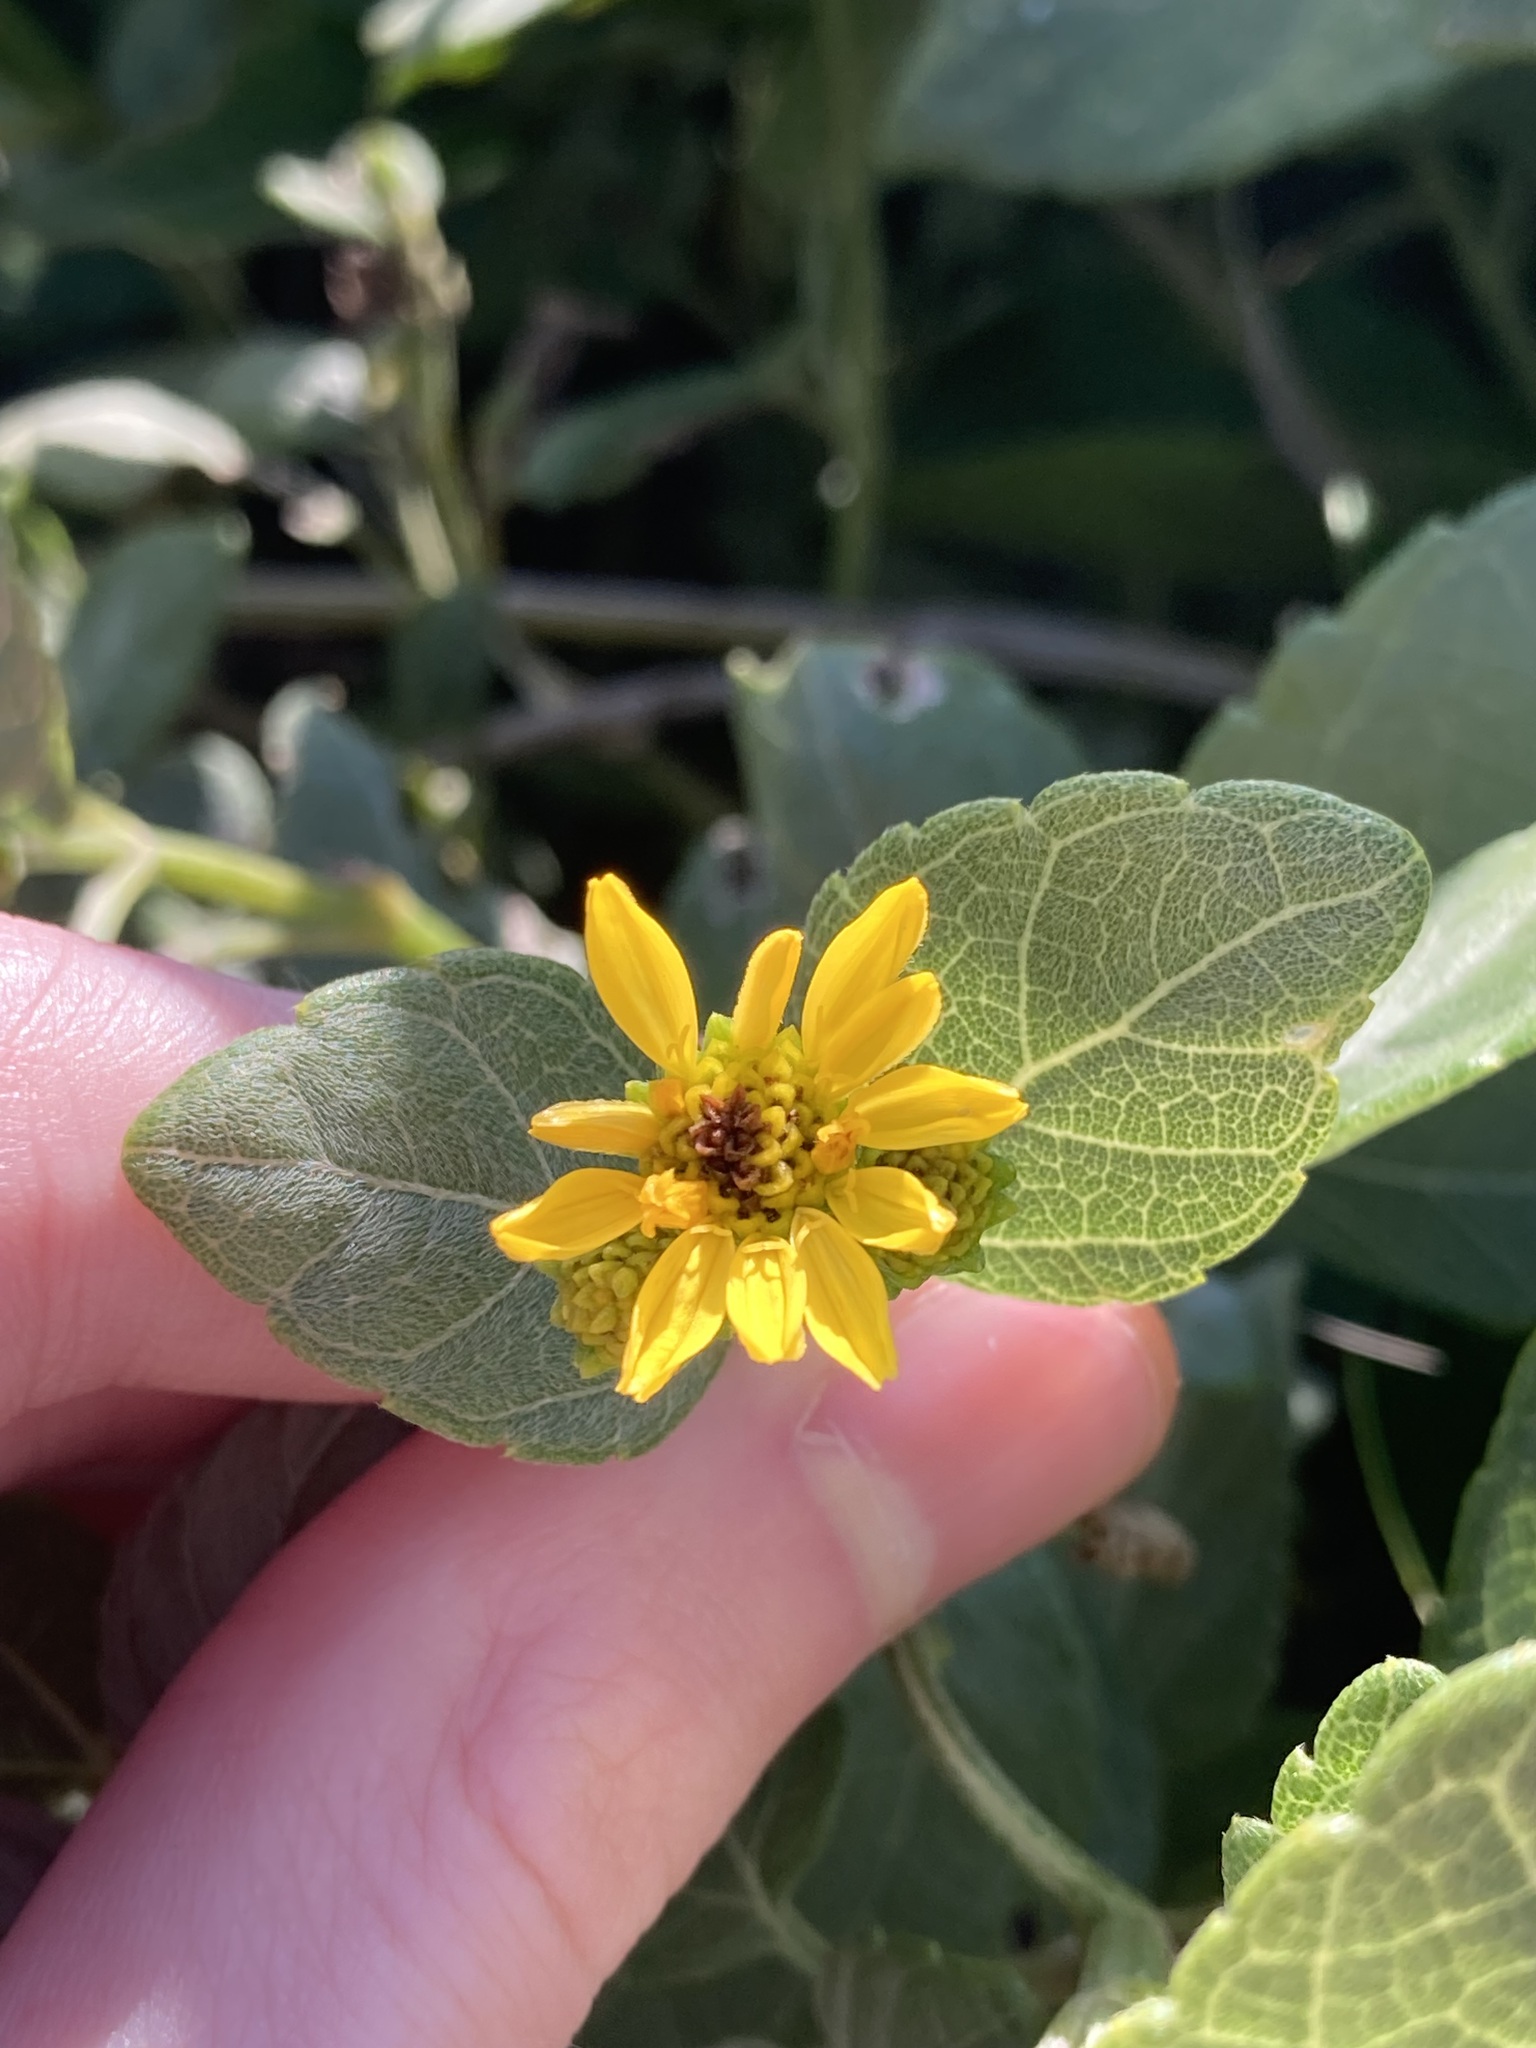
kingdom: Plantae
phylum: Tracheophyta
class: Magnoliopsida
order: Asterales
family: Asteraceae
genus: Wollastonia
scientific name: Wollastonia uniflora
